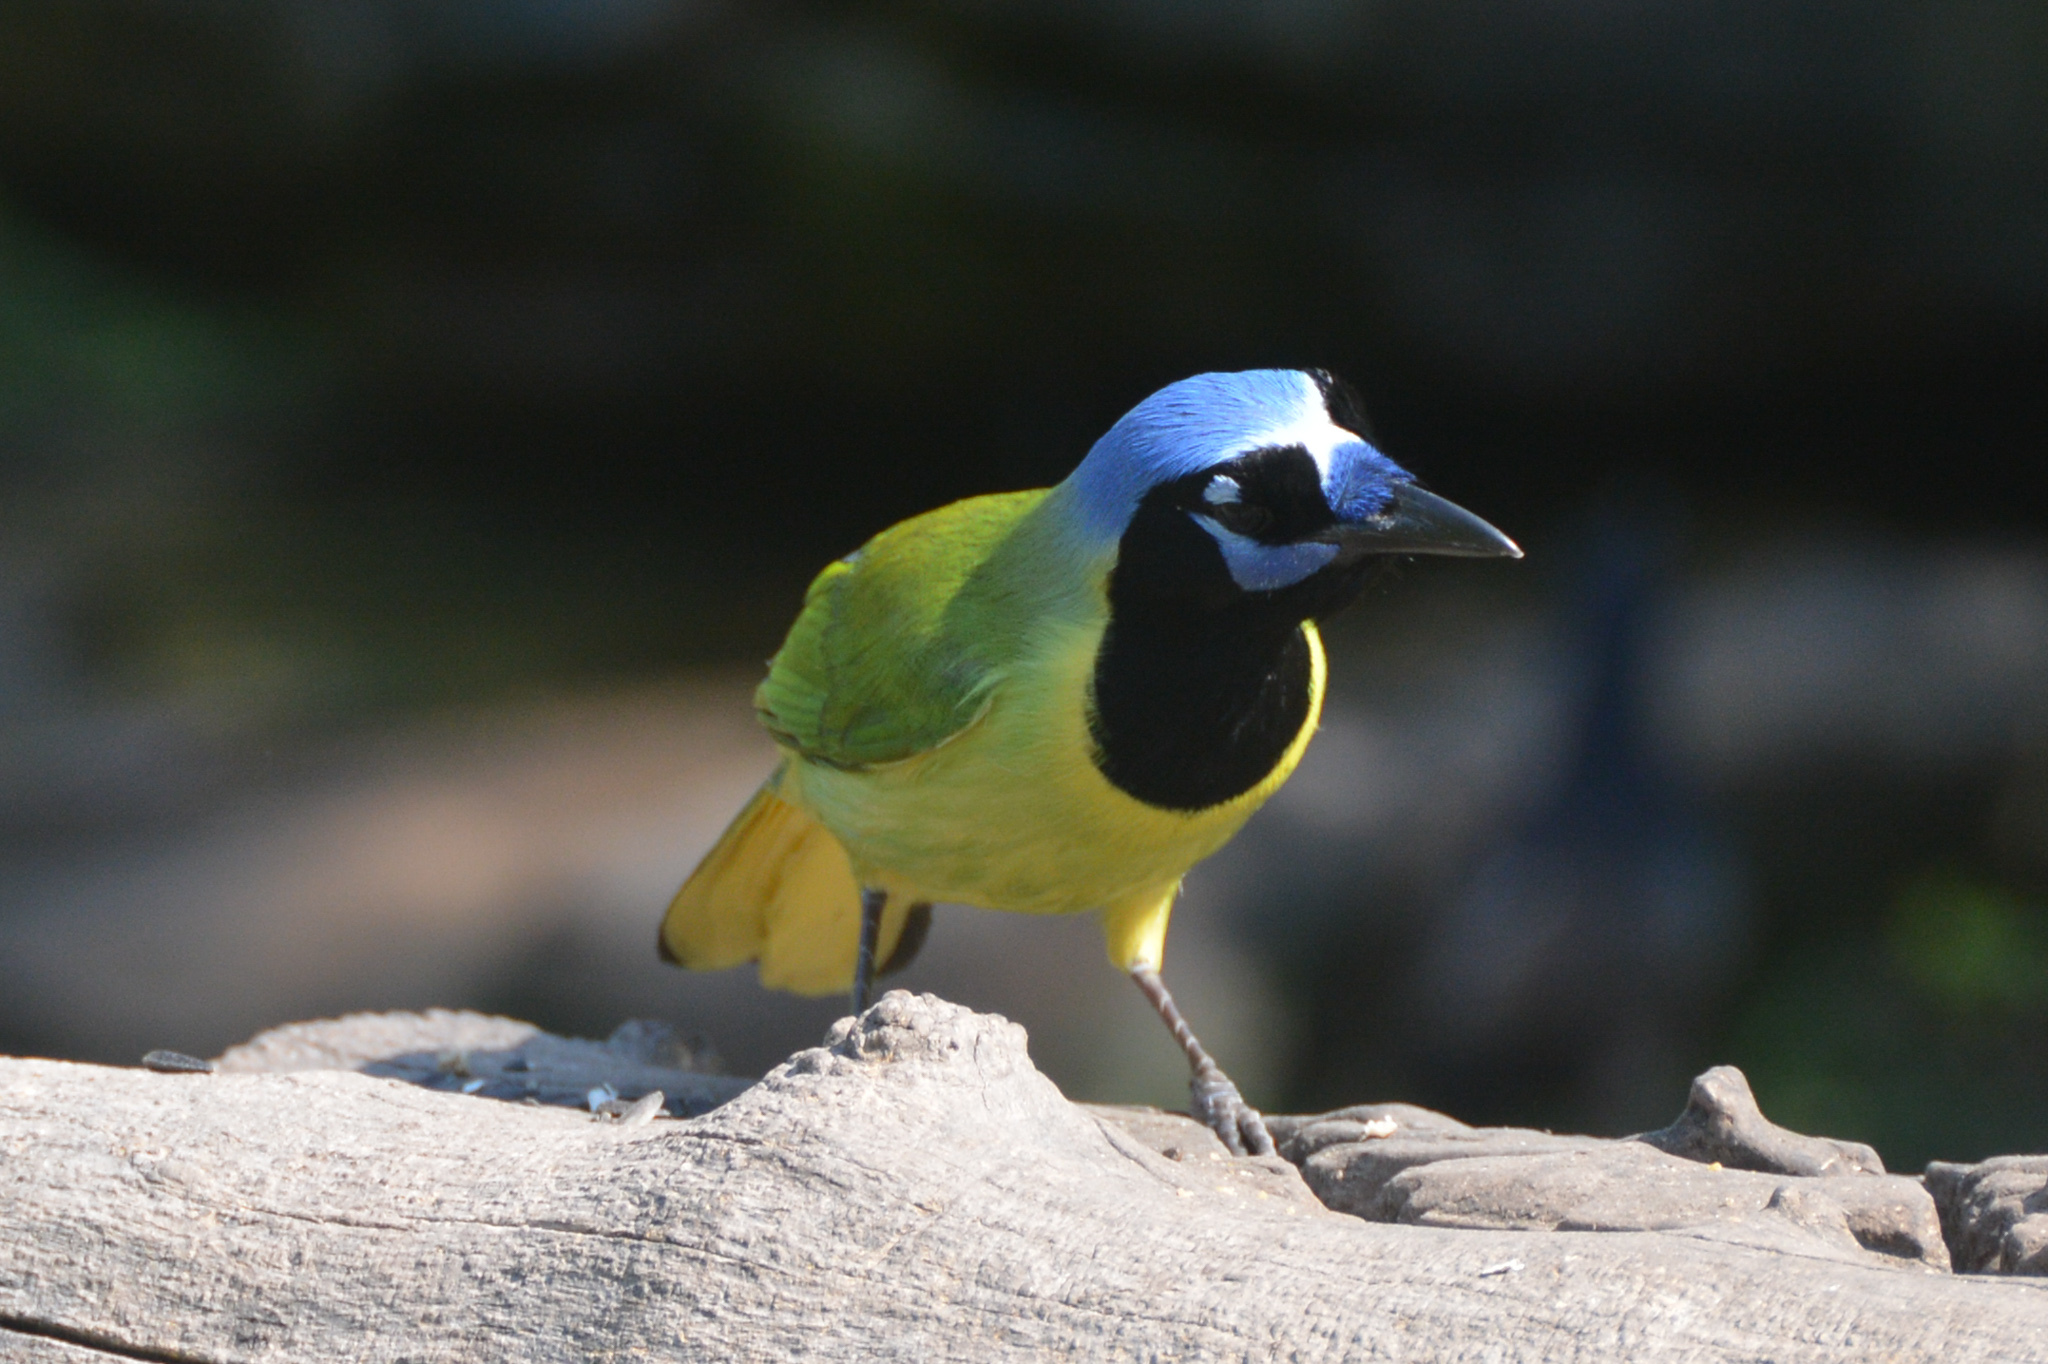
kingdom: Animalia
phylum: Chordata
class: Aves
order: Passeriformes
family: Corvidae
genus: Cyanocorax
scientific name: Cyanocorax yncas
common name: Green jay
